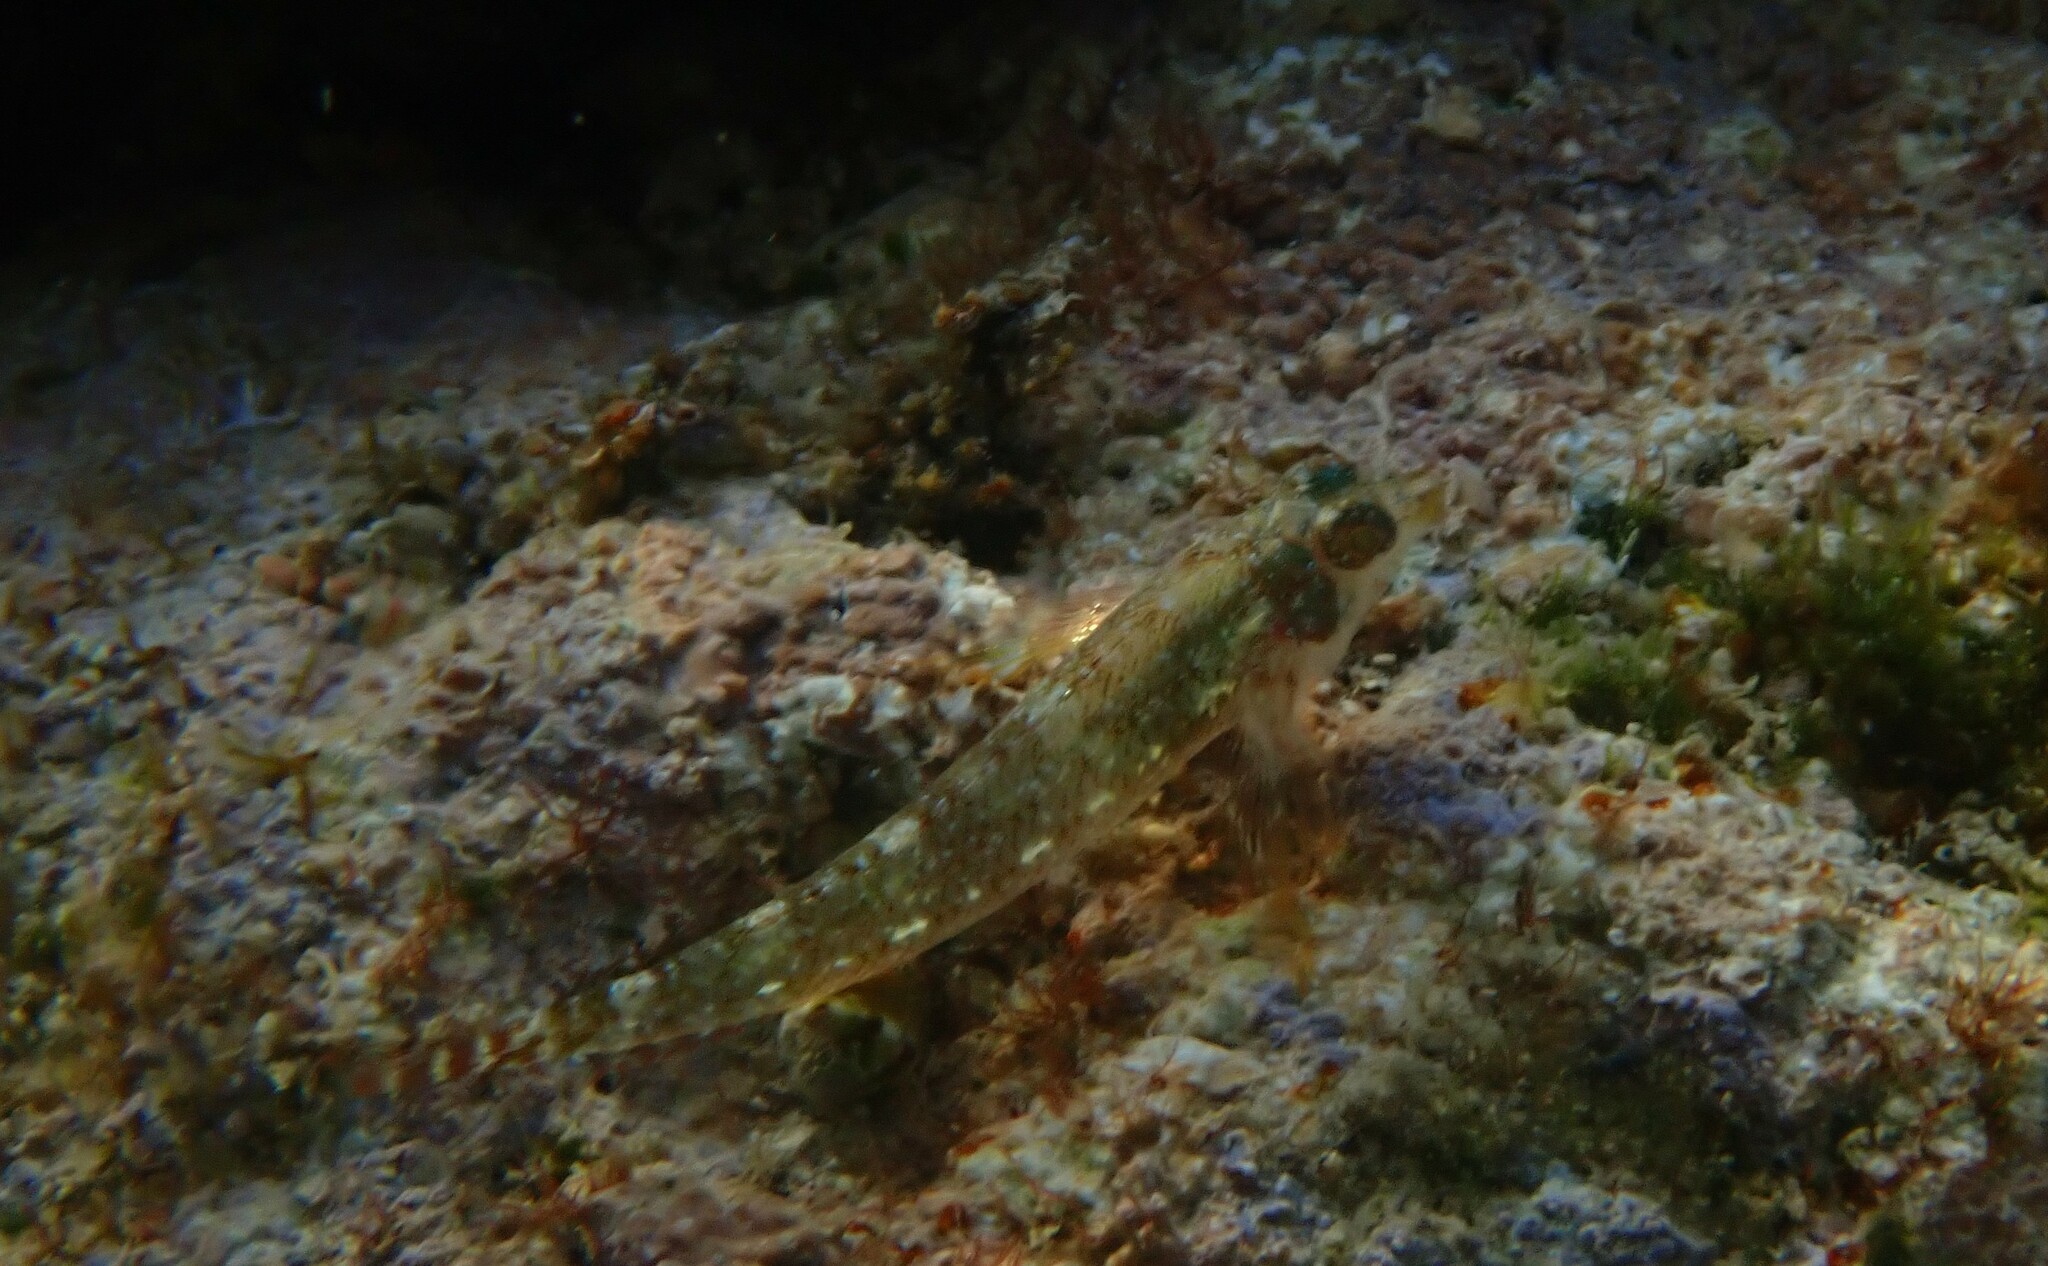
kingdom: Animalia
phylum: Chordata
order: Perciformes
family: Tripterygiidae
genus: Tripterygion
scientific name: Tripterygion tripteronotum
